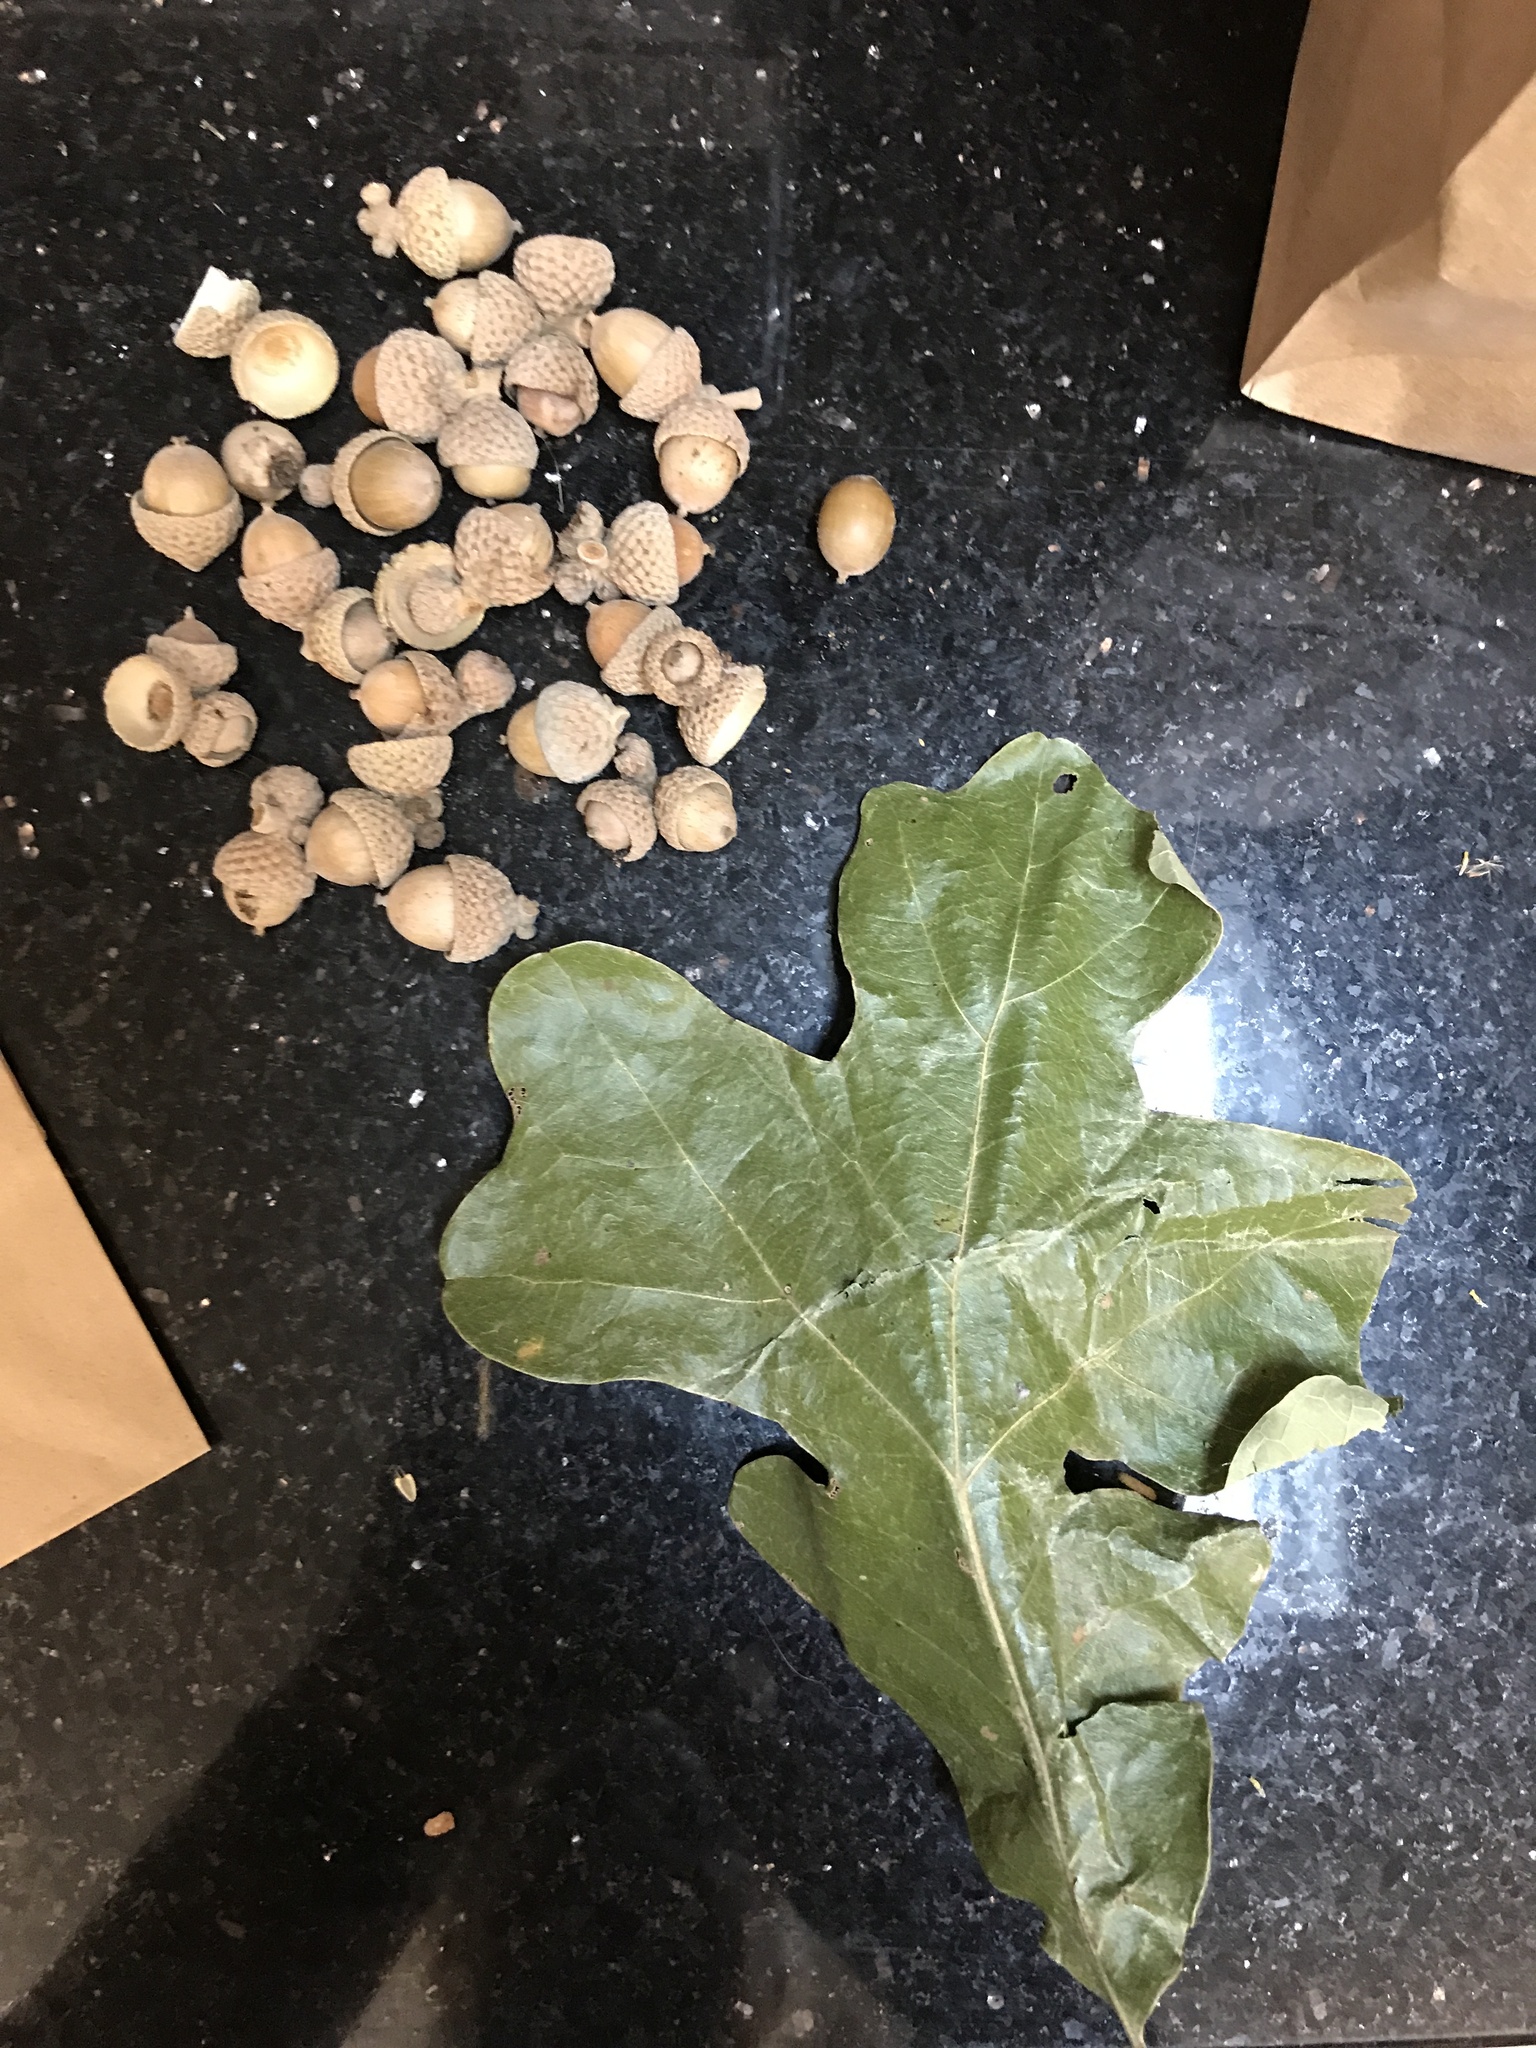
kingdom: Plantae
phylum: Tracheophyta
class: Magnoliopsida
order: Fagales
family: Fagaceae
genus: Quercus
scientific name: Quercus stellata
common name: Post oak
